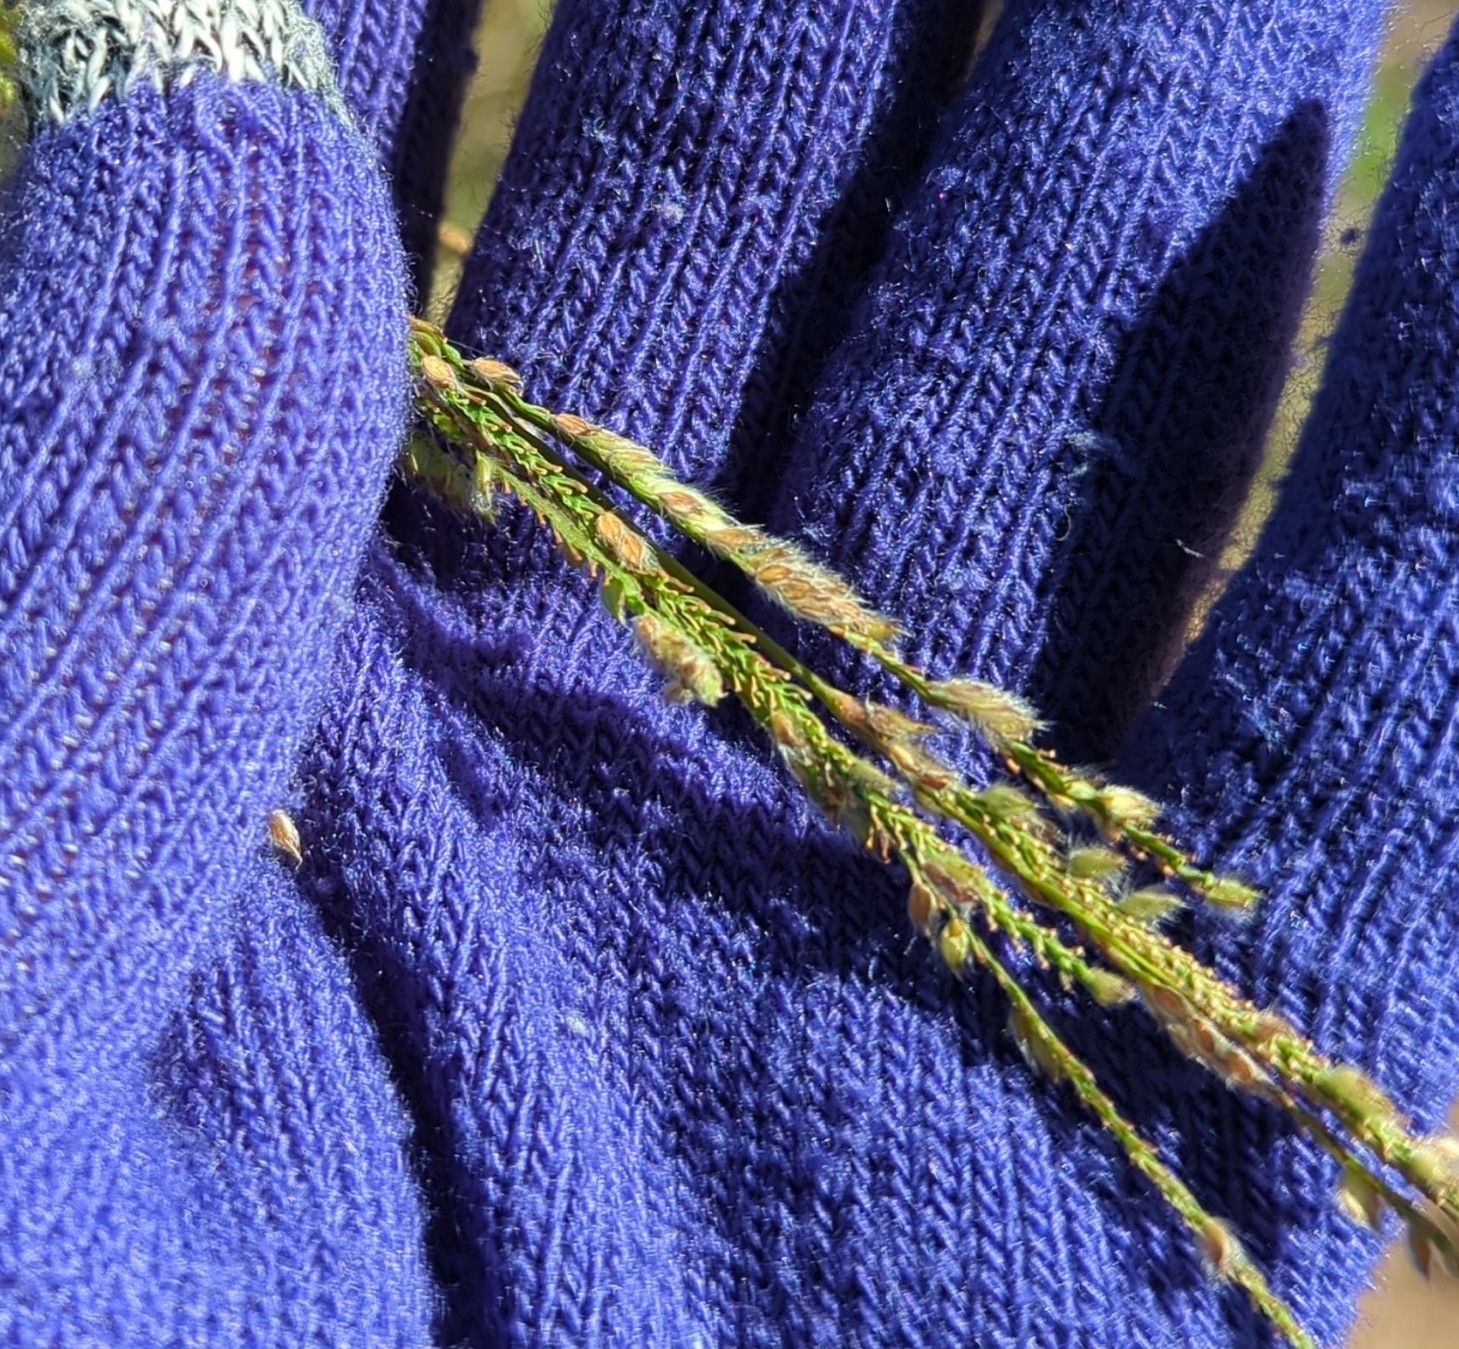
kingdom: Plantae
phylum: Tracheophyta
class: Liliopsida
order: Poales
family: Poaceae
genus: Paspalum
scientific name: Paspalum urvillei
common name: Vasey's grass
